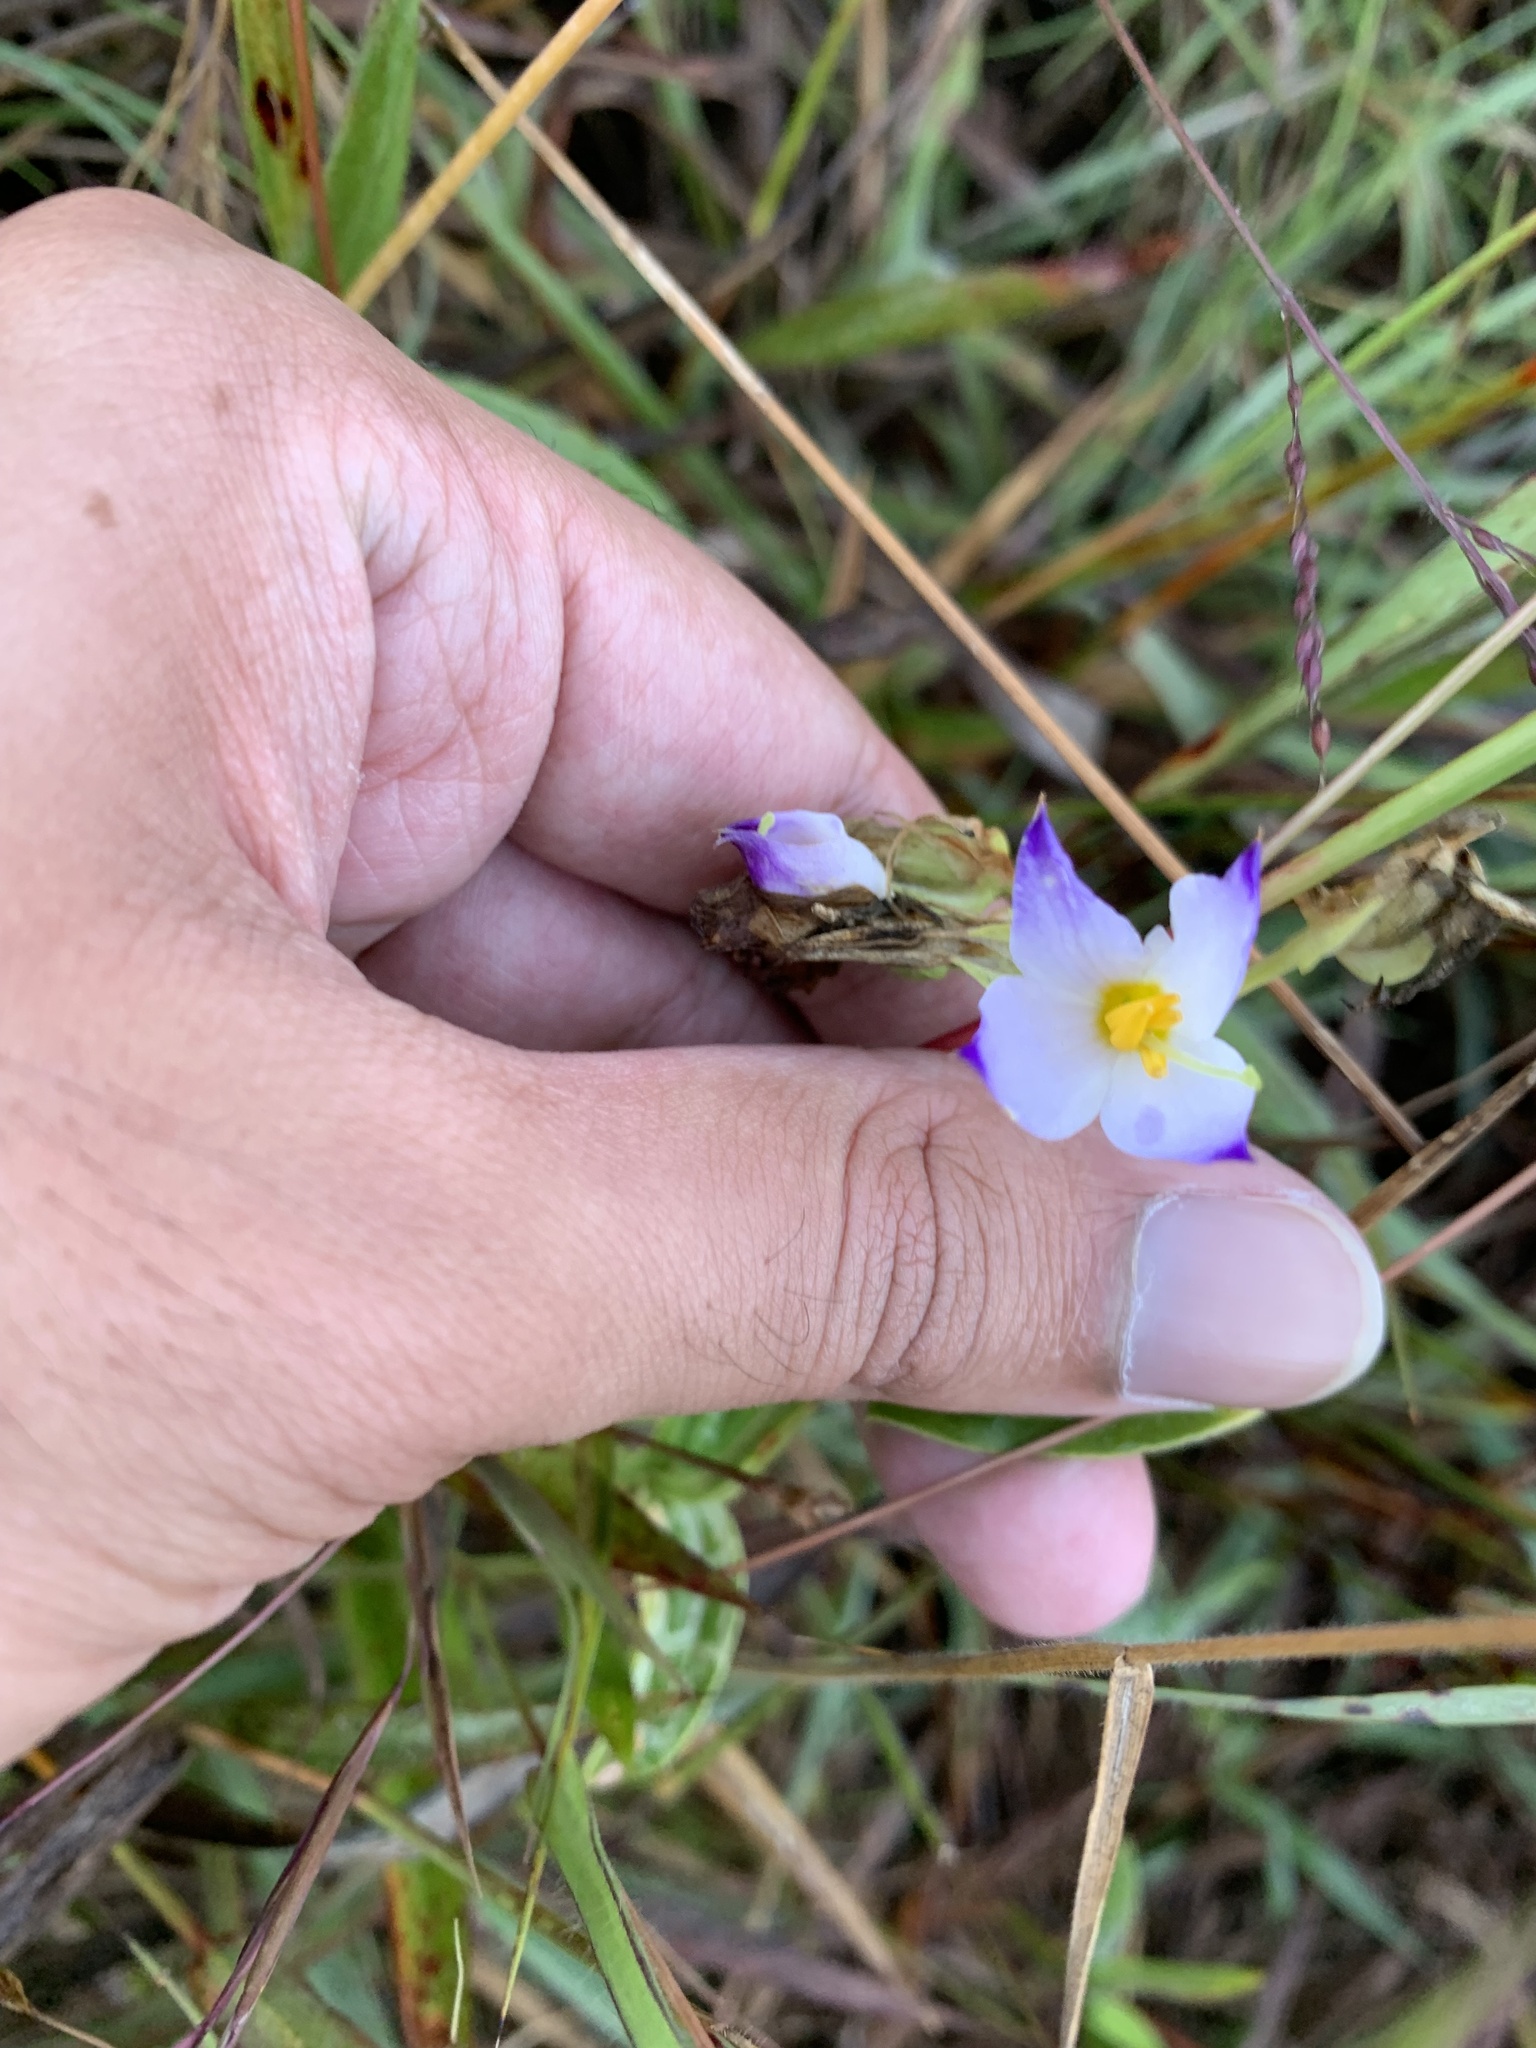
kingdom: Plantae
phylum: Tracheophyta
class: Magnoliopsida
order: Gentianales
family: Gentianaceae
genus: Exacum
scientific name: Exacum tetragonum
